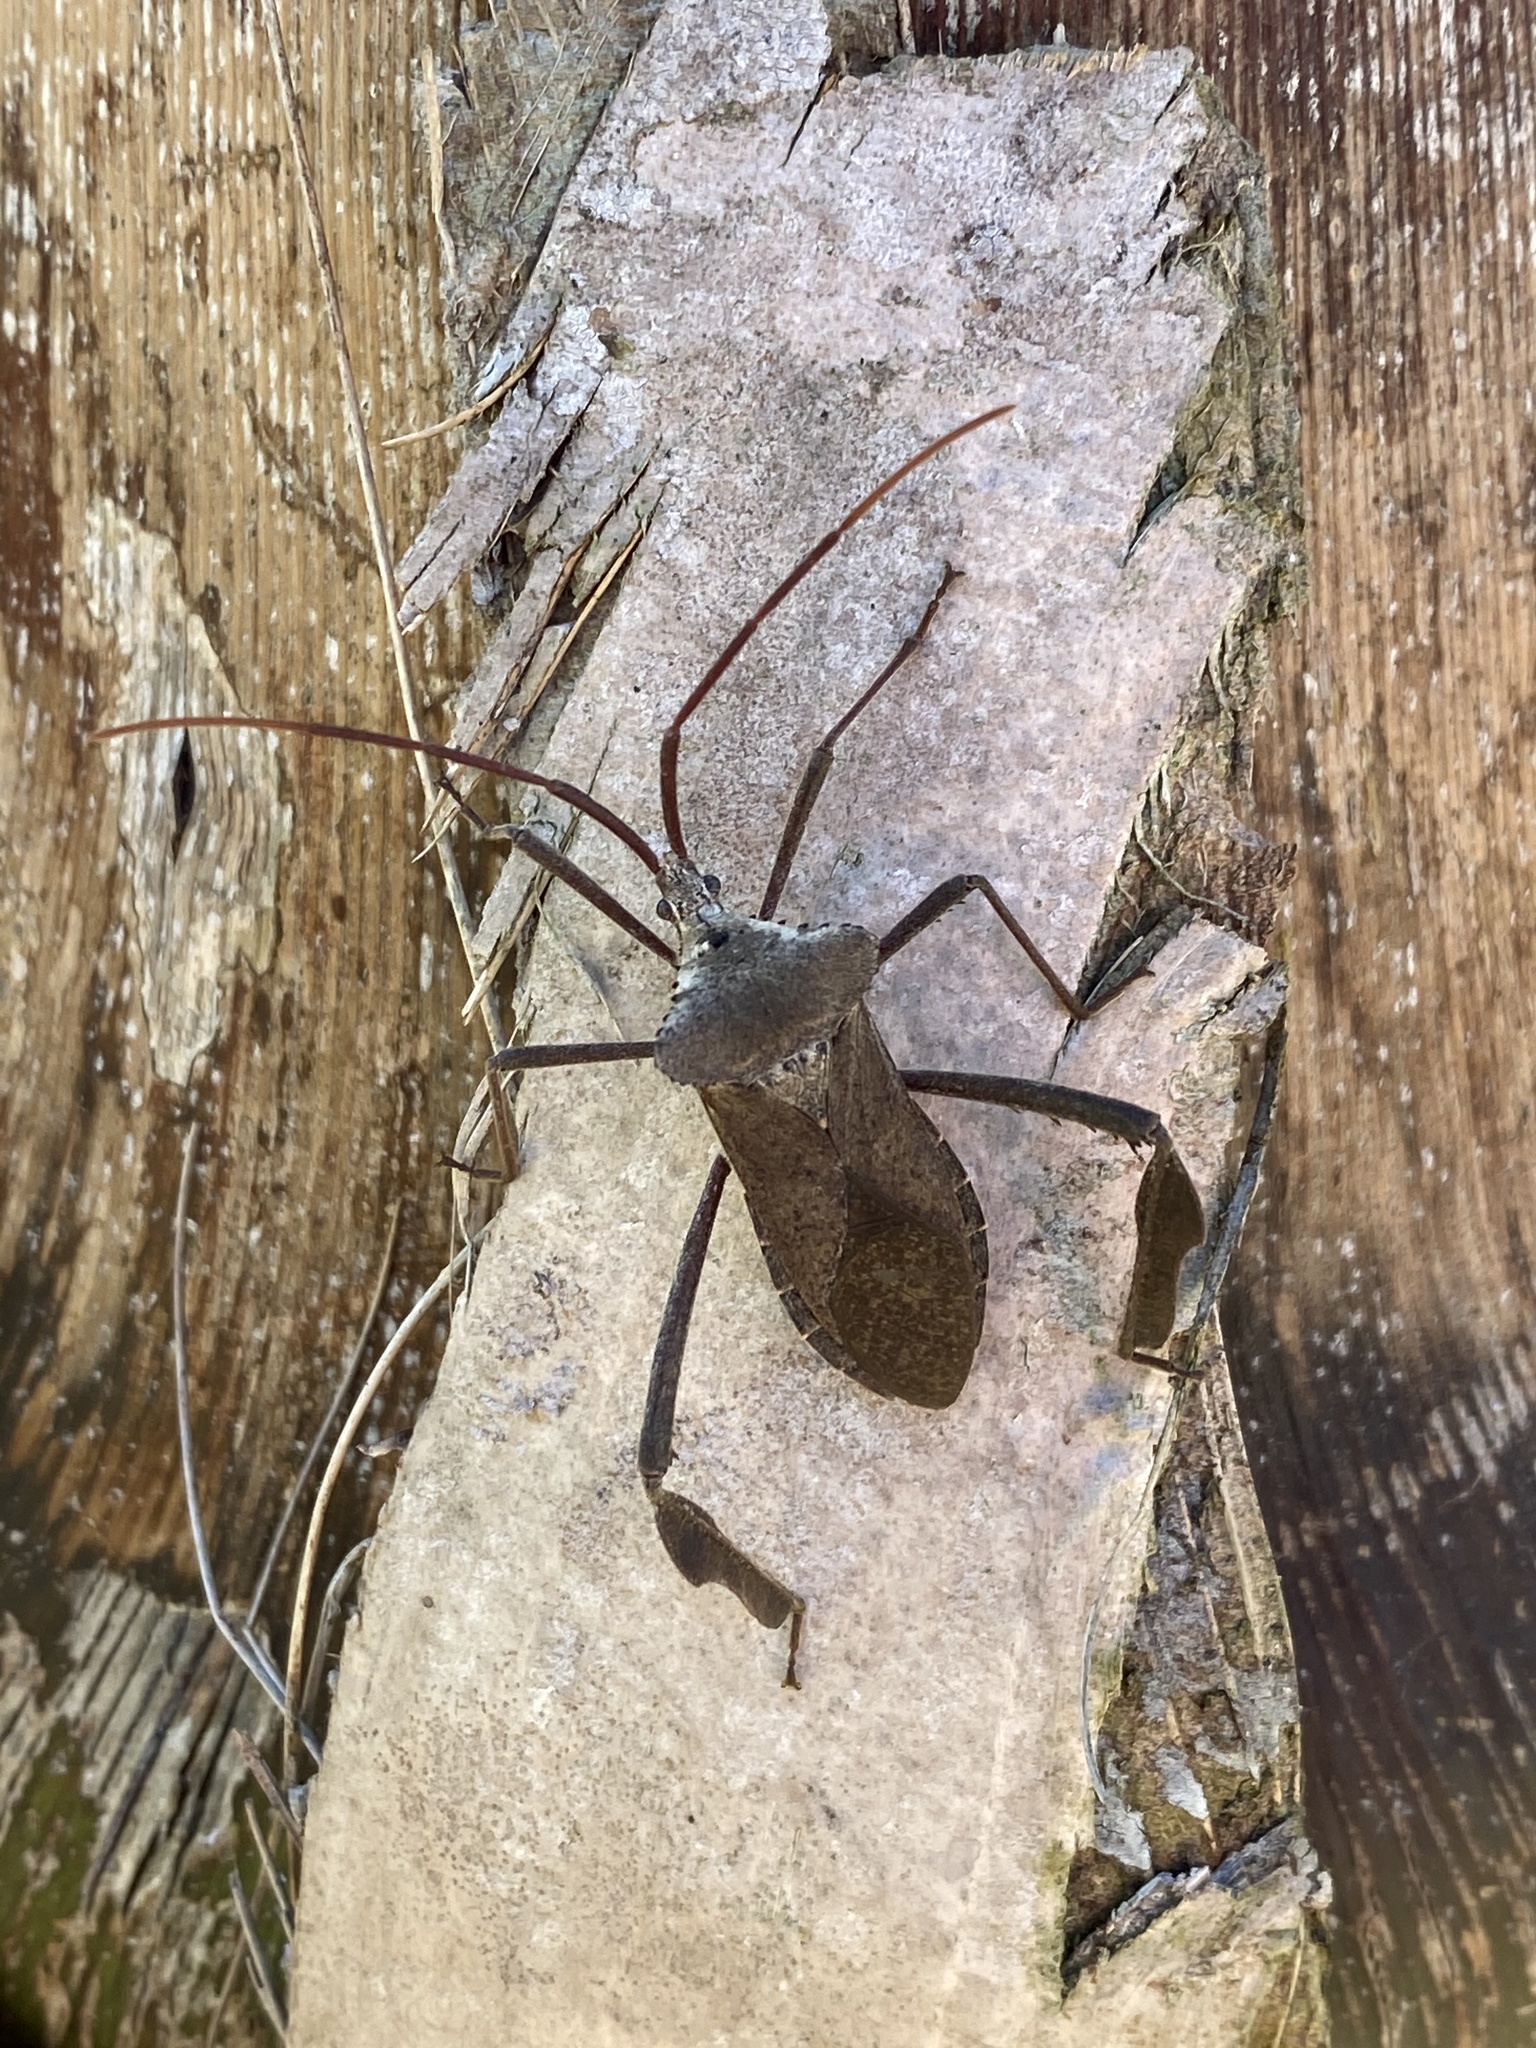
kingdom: Animalia
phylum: Arthropoda
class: Insecta
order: Hemiptera
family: Coreidae
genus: Acanthocephala
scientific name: Acanthocephala declivis
